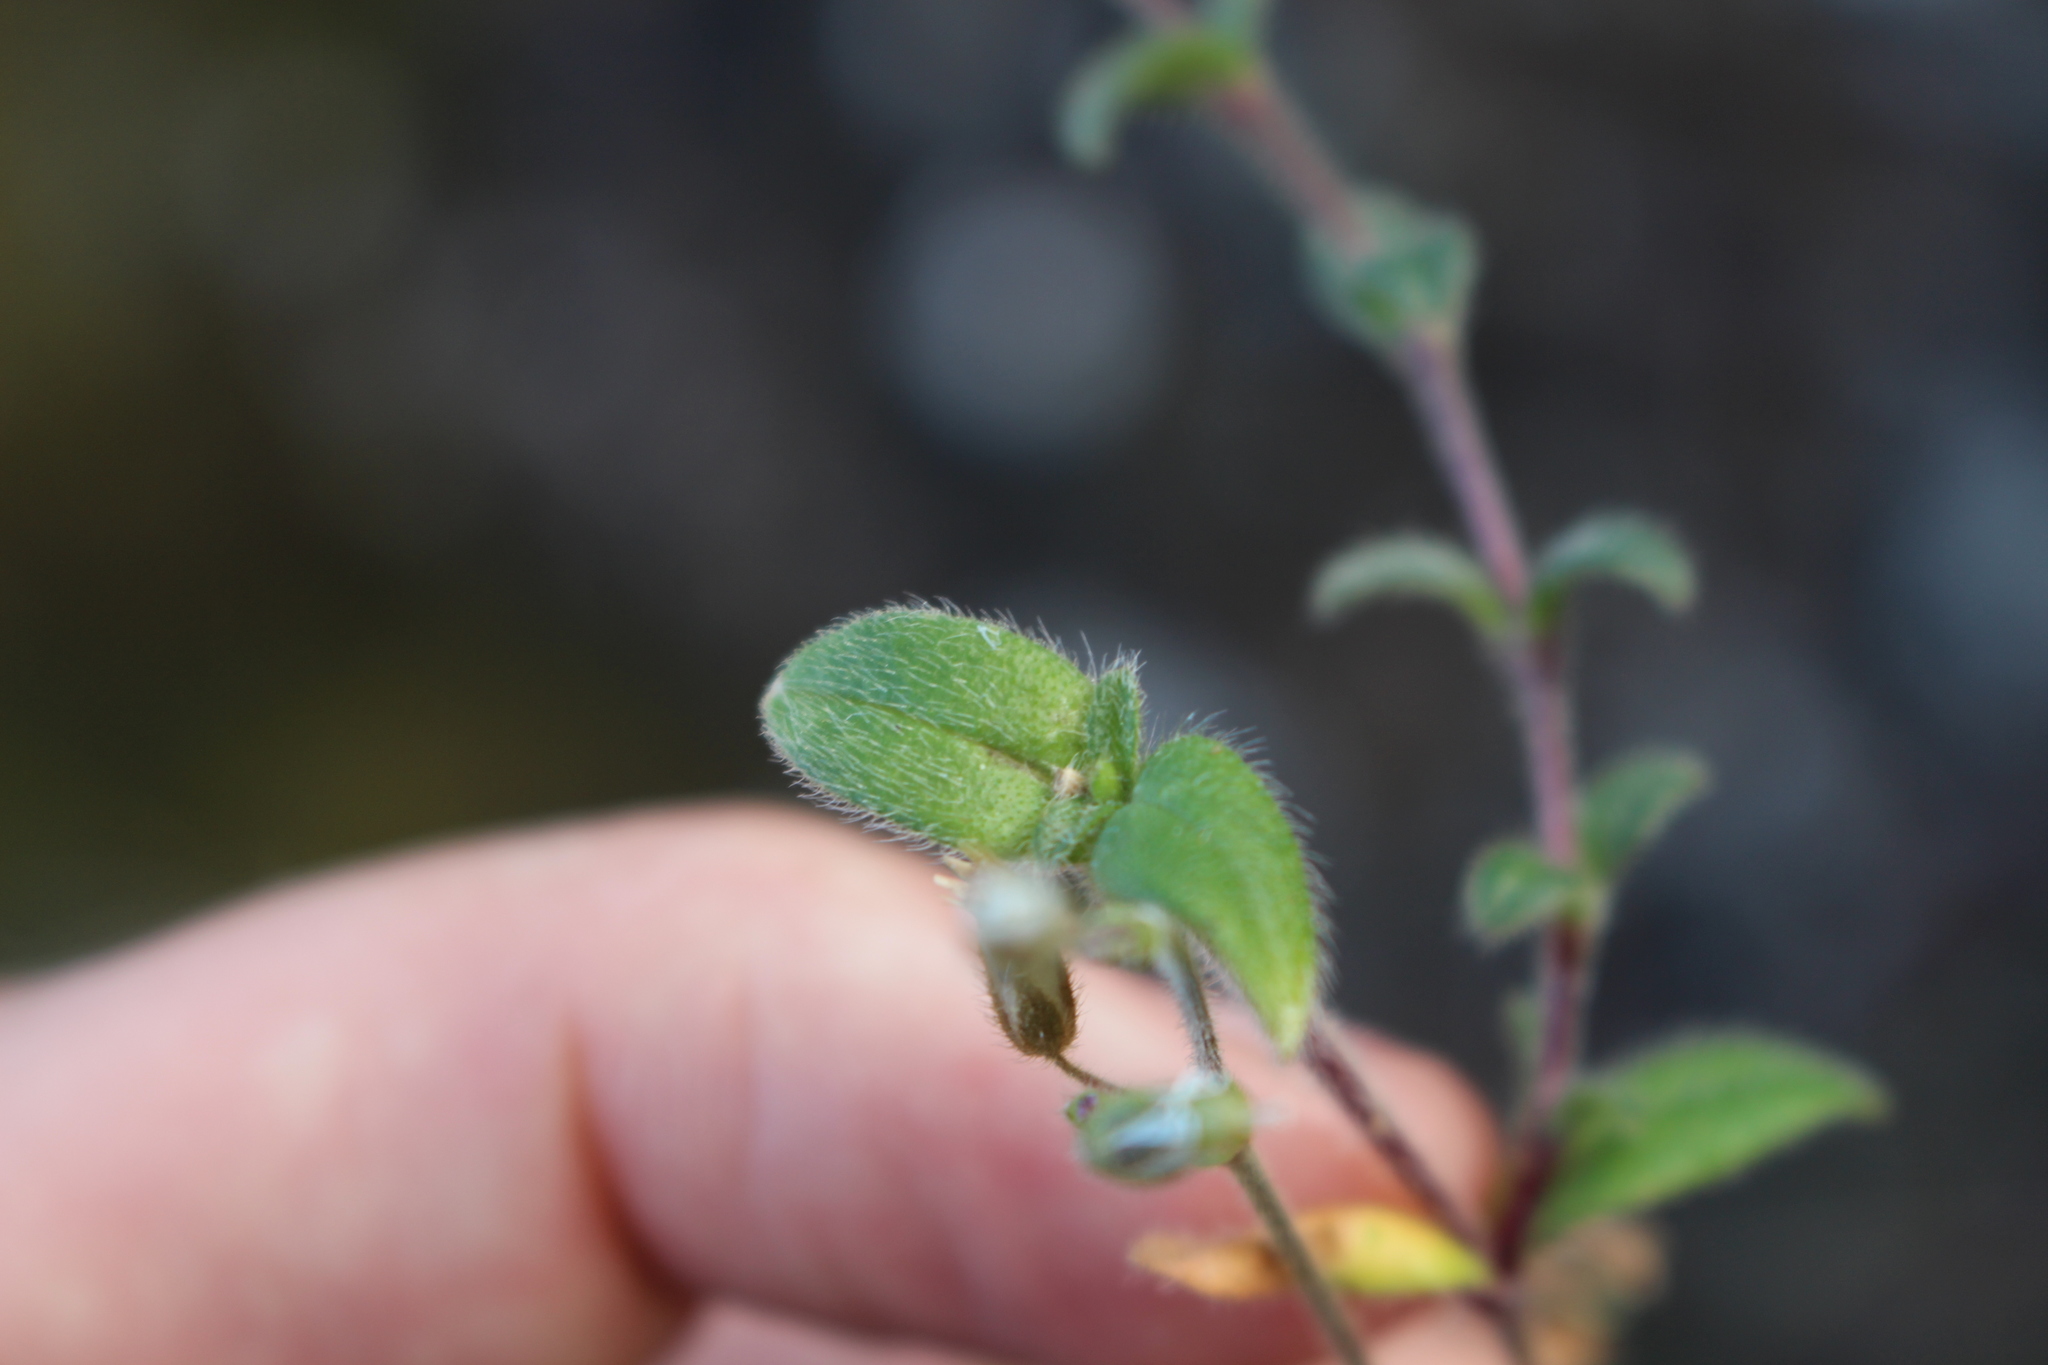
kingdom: Plantae
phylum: Tracheophyta
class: Magnoliopsida
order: Caryophyllales
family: Caryophyllaceae
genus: Cerastium
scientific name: Cerastium holosteoides
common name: Big chickweed
